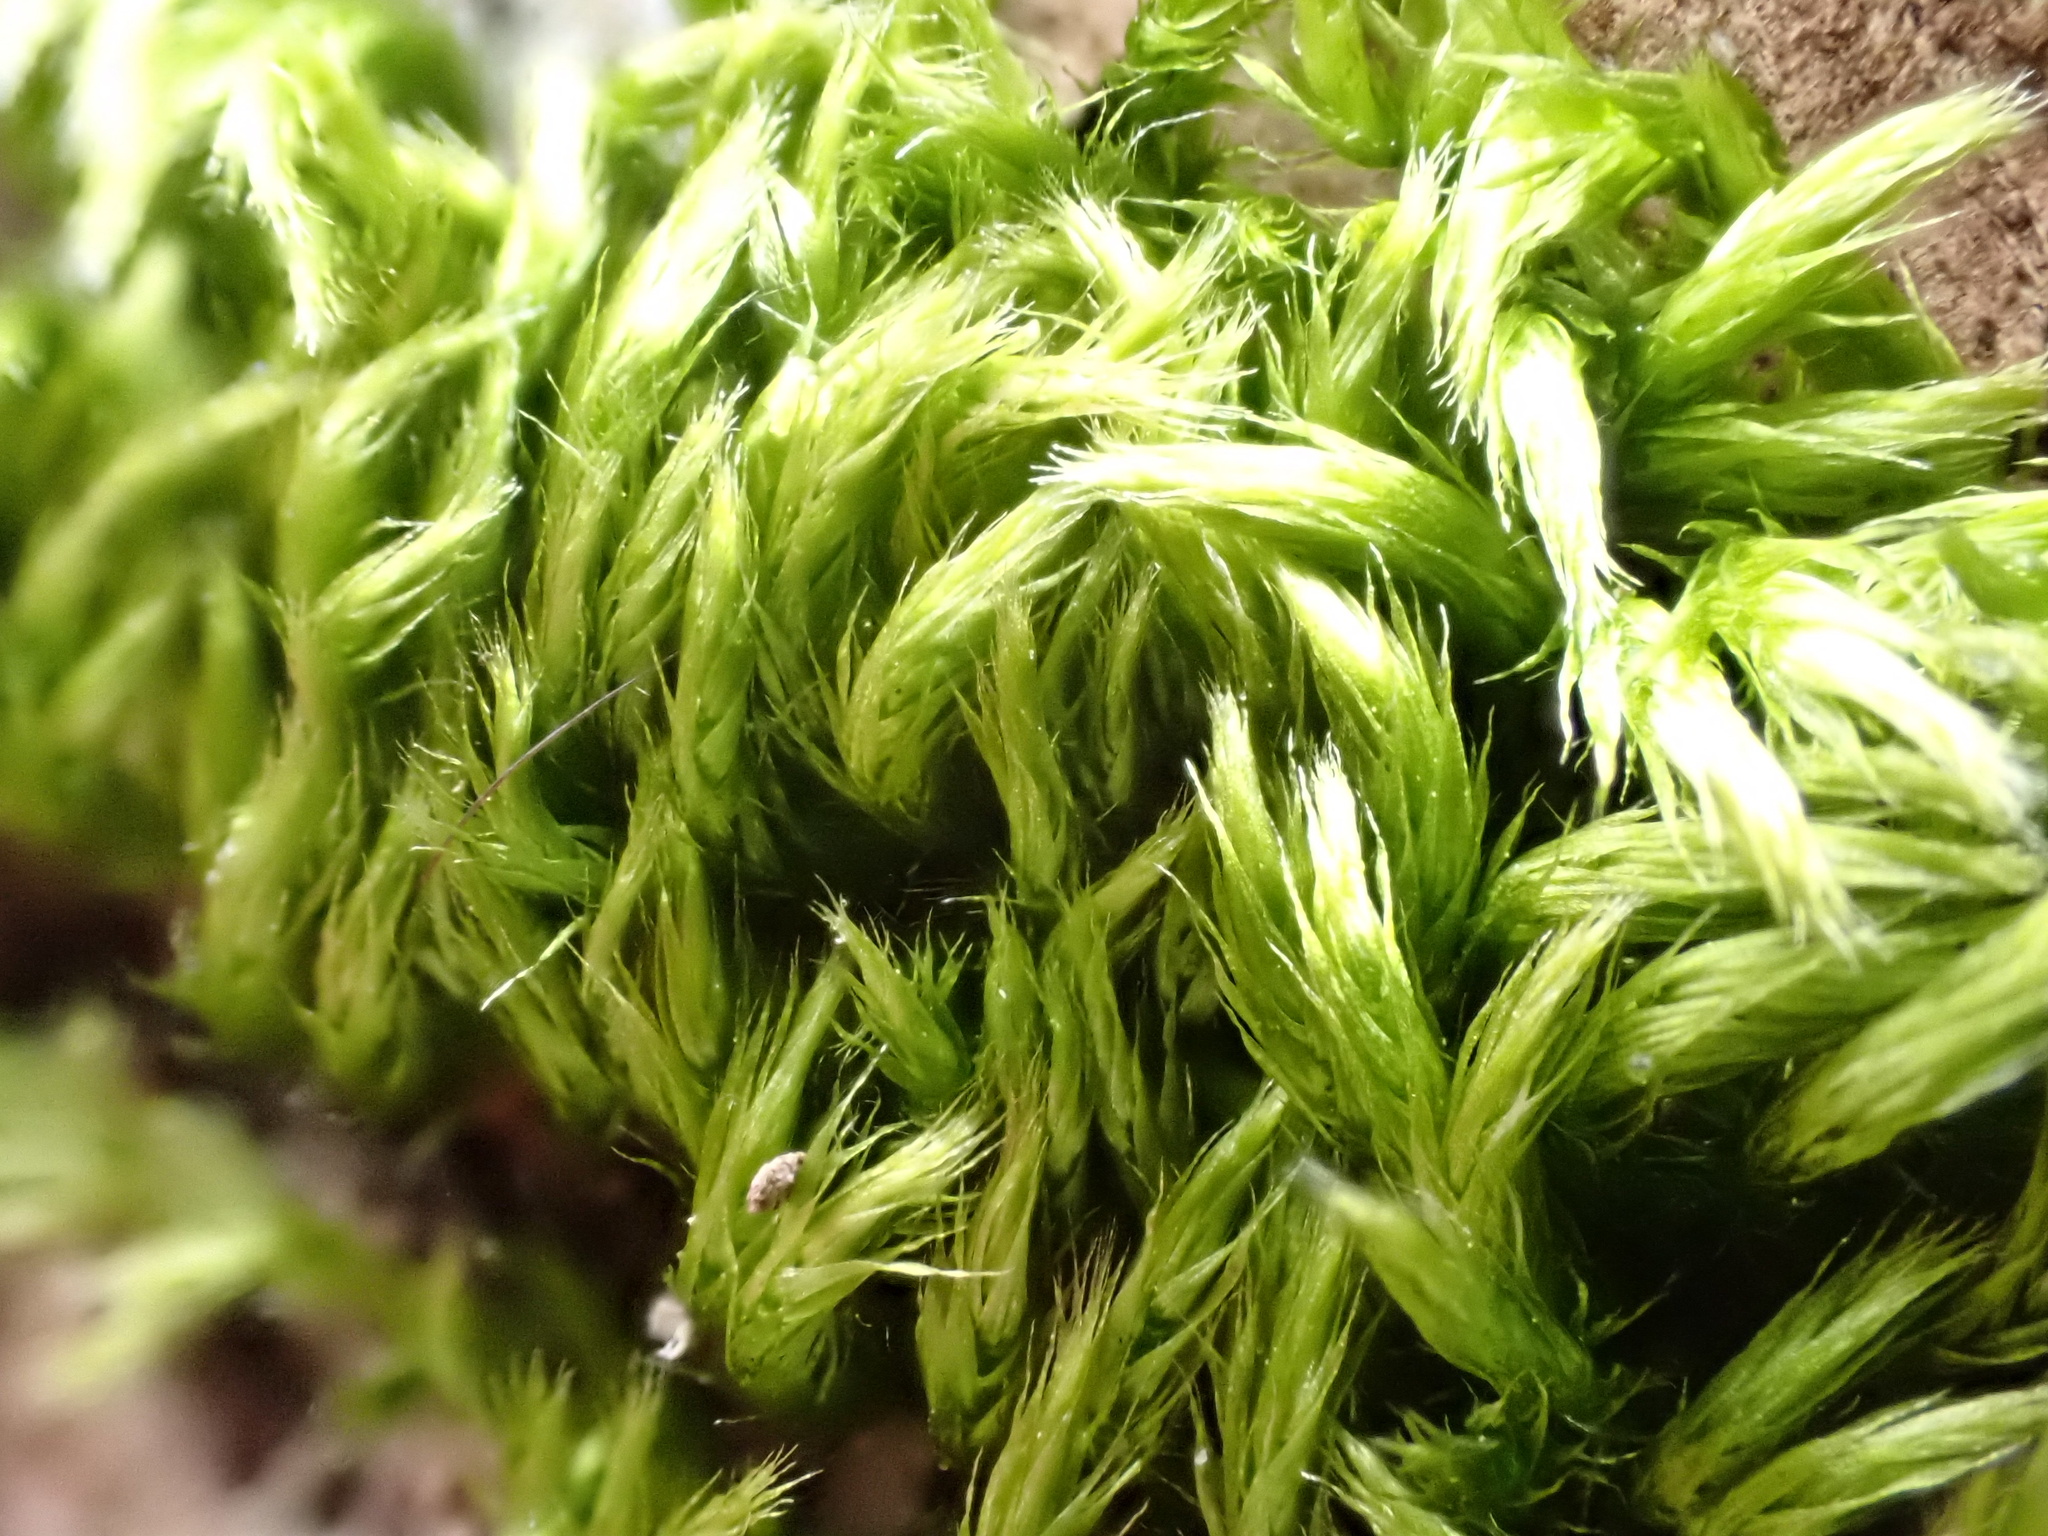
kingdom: Plantae
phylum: Bryophyta
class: Bryopsida
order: Hypnales
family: Brachytheciaceae
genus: Homalothecium
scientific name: Homalothecium sericeum
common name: Silky wall feather-moss
